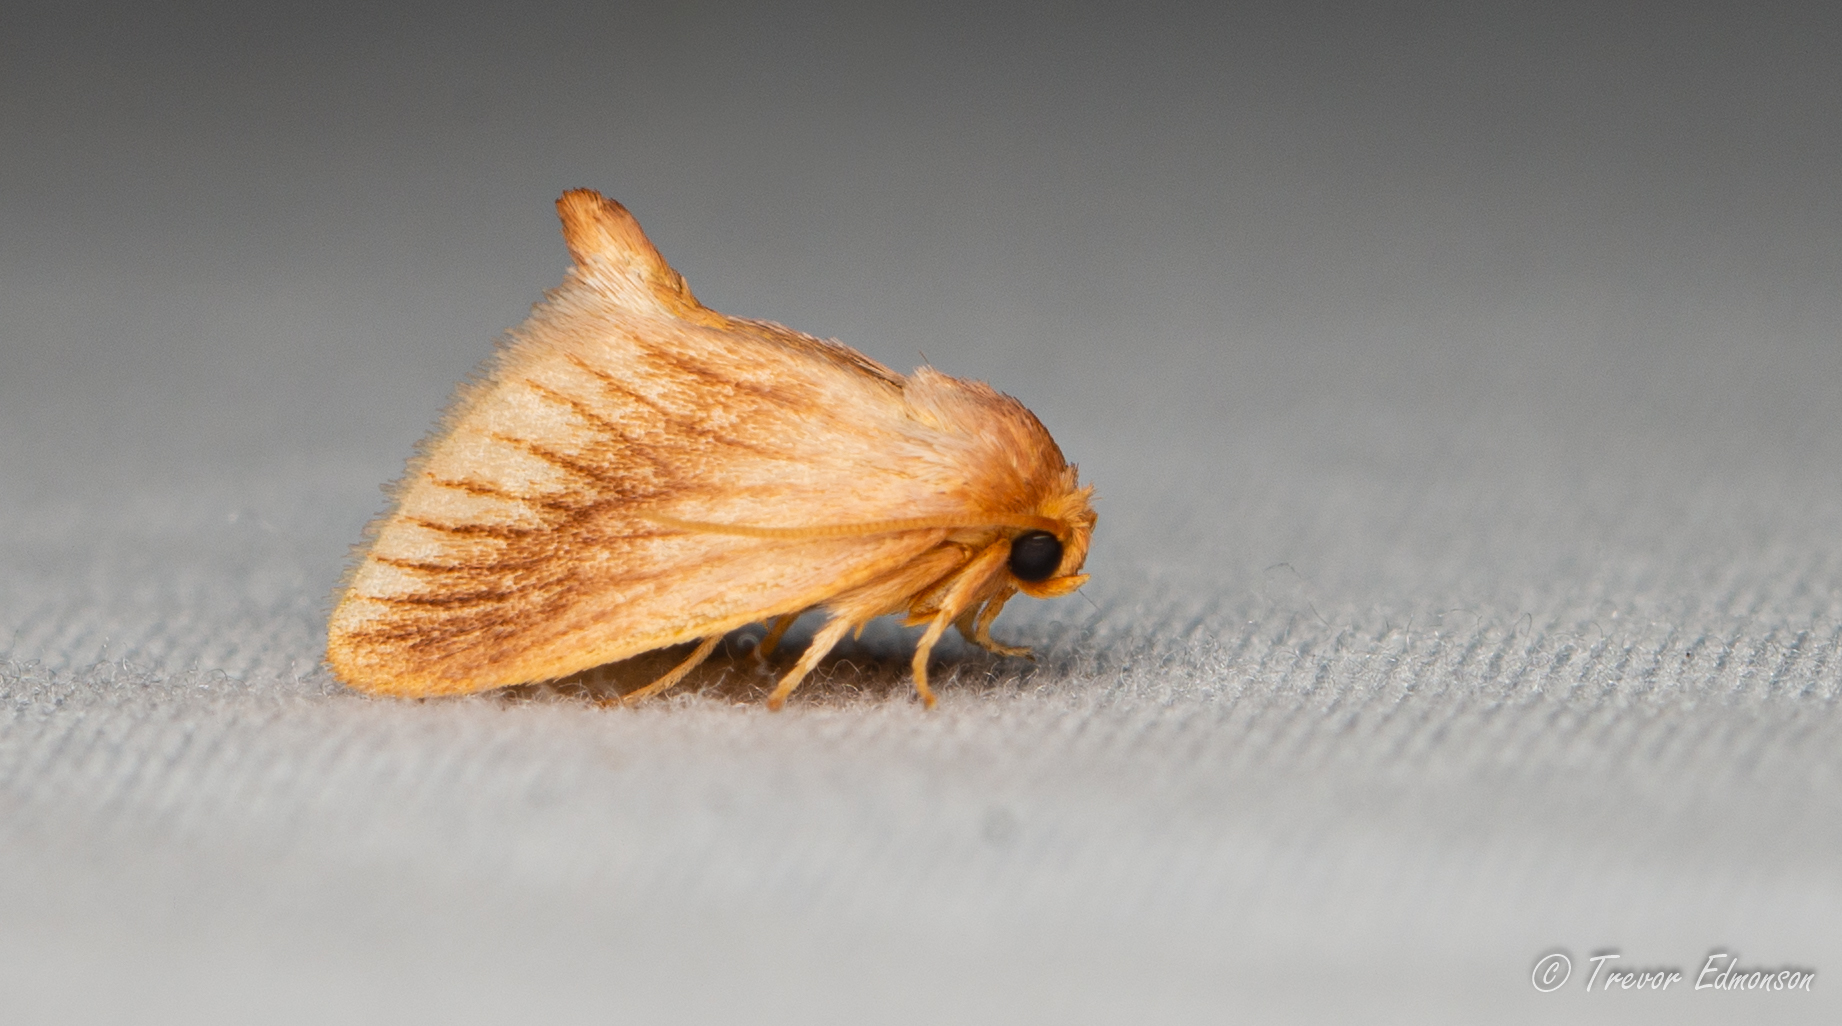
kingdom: Animalia
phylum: Arthropoda
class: Insecta
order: Lepidoptera
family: Limacodidae
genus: Tortricidia
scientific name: Tortricidia testacea
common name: Early button slug moth
